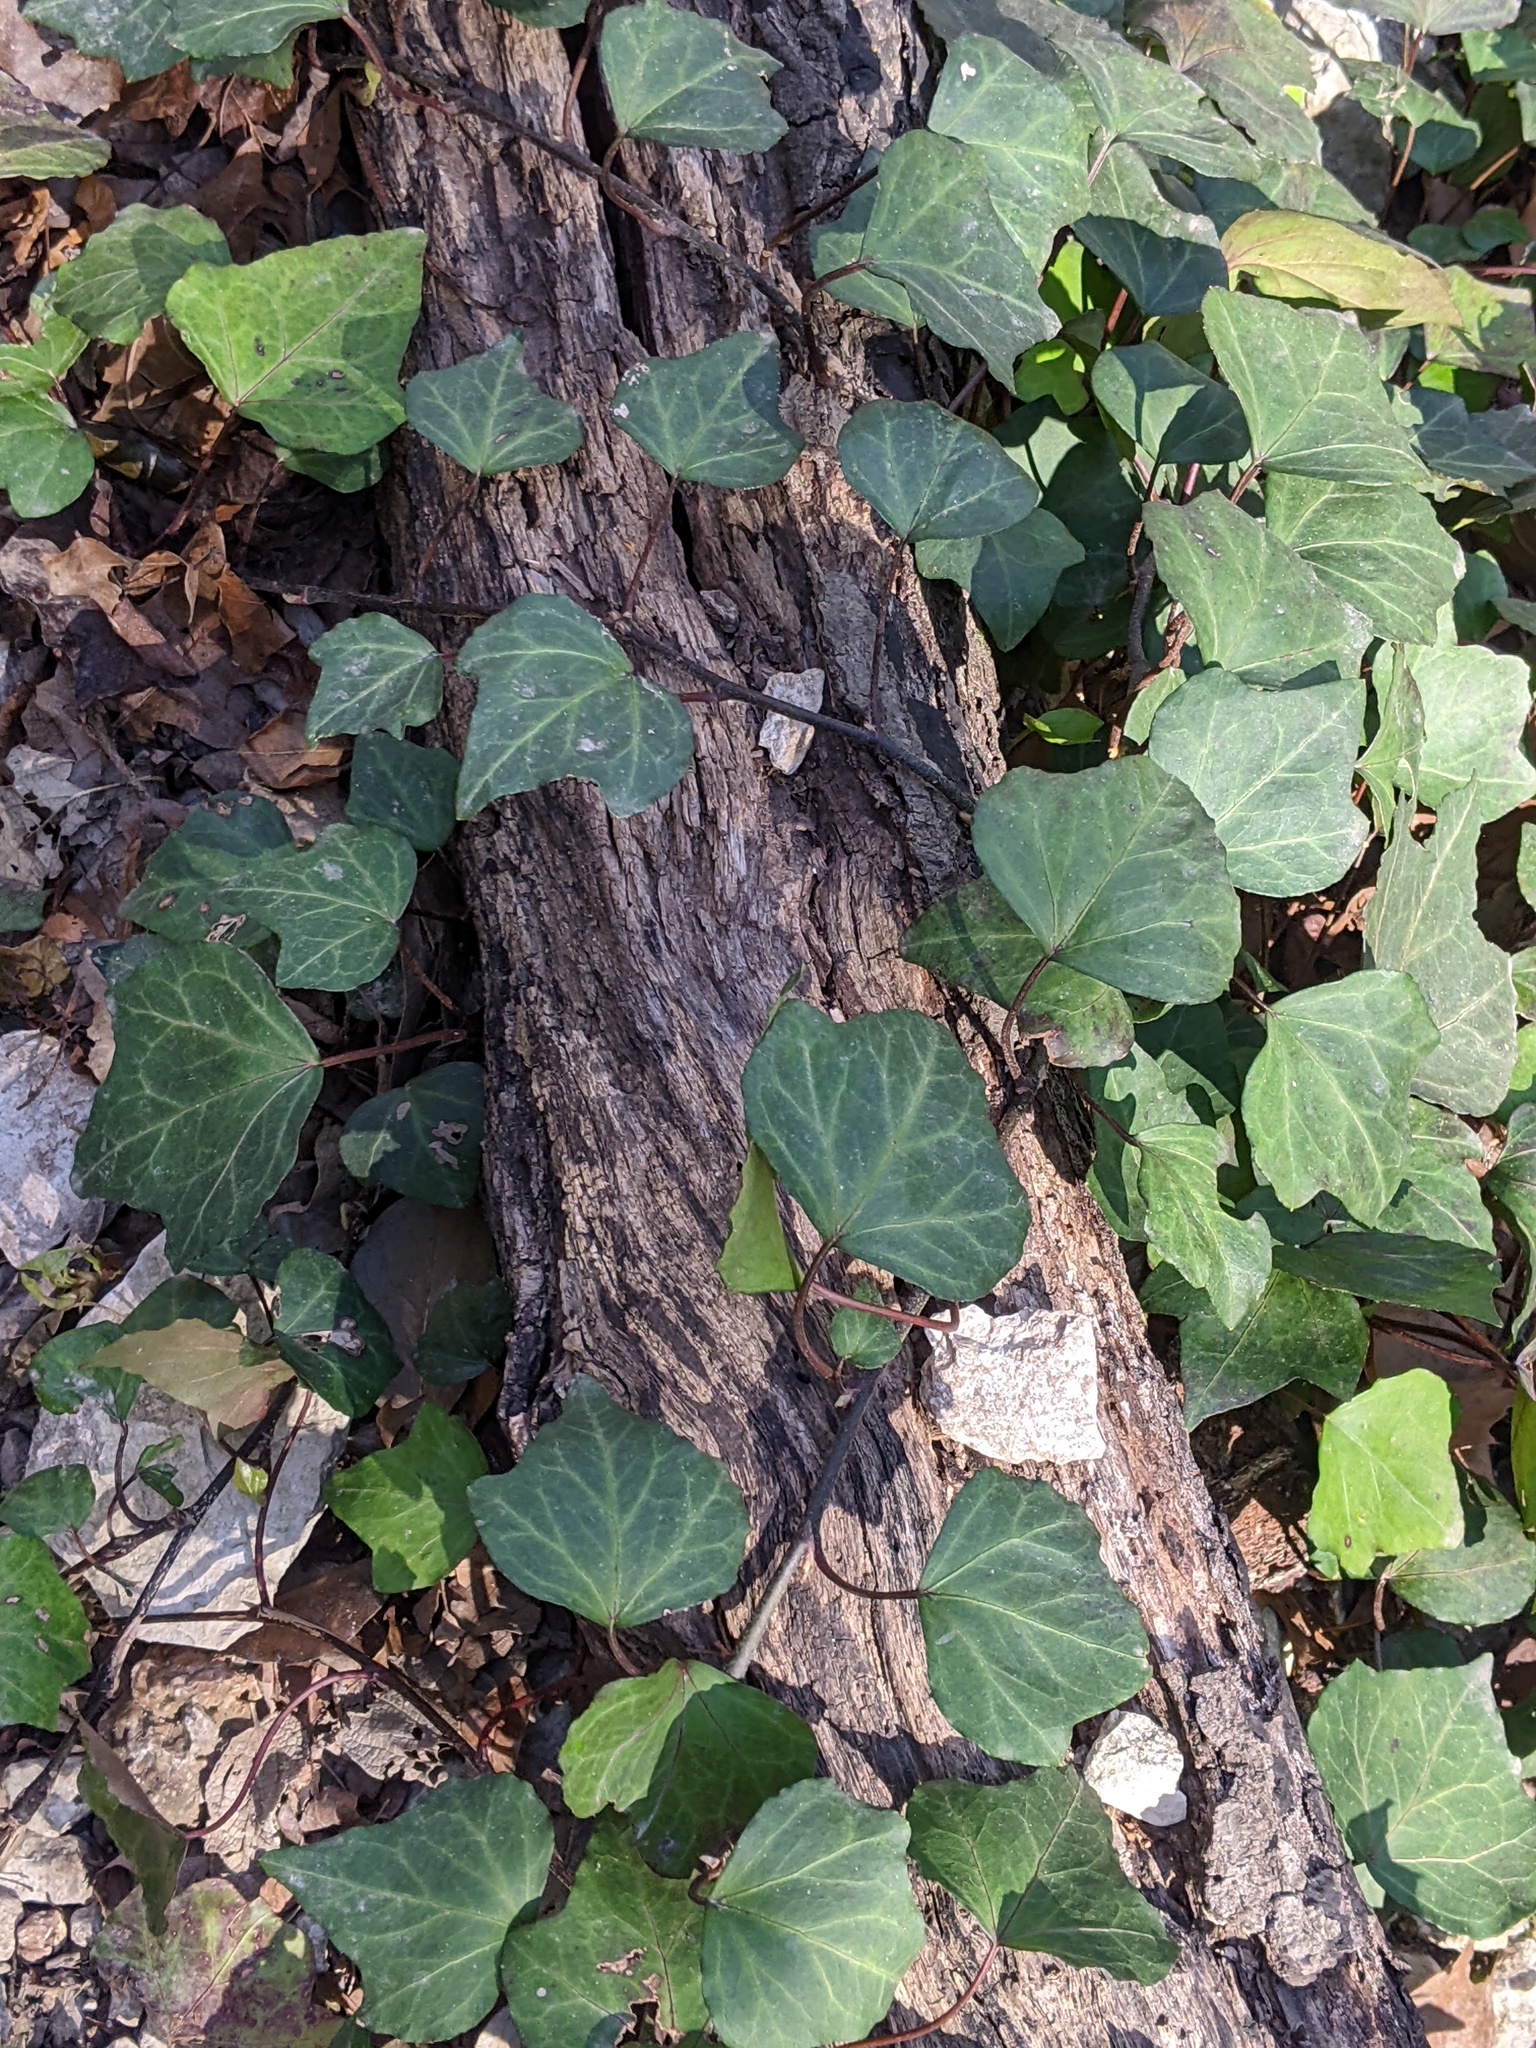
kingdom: Plantae
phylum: Tracheophyta
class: Magnoliopsida
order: Apiales
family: Araliaceae
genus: Hedera
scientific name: Hedera helix
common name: Ivy
